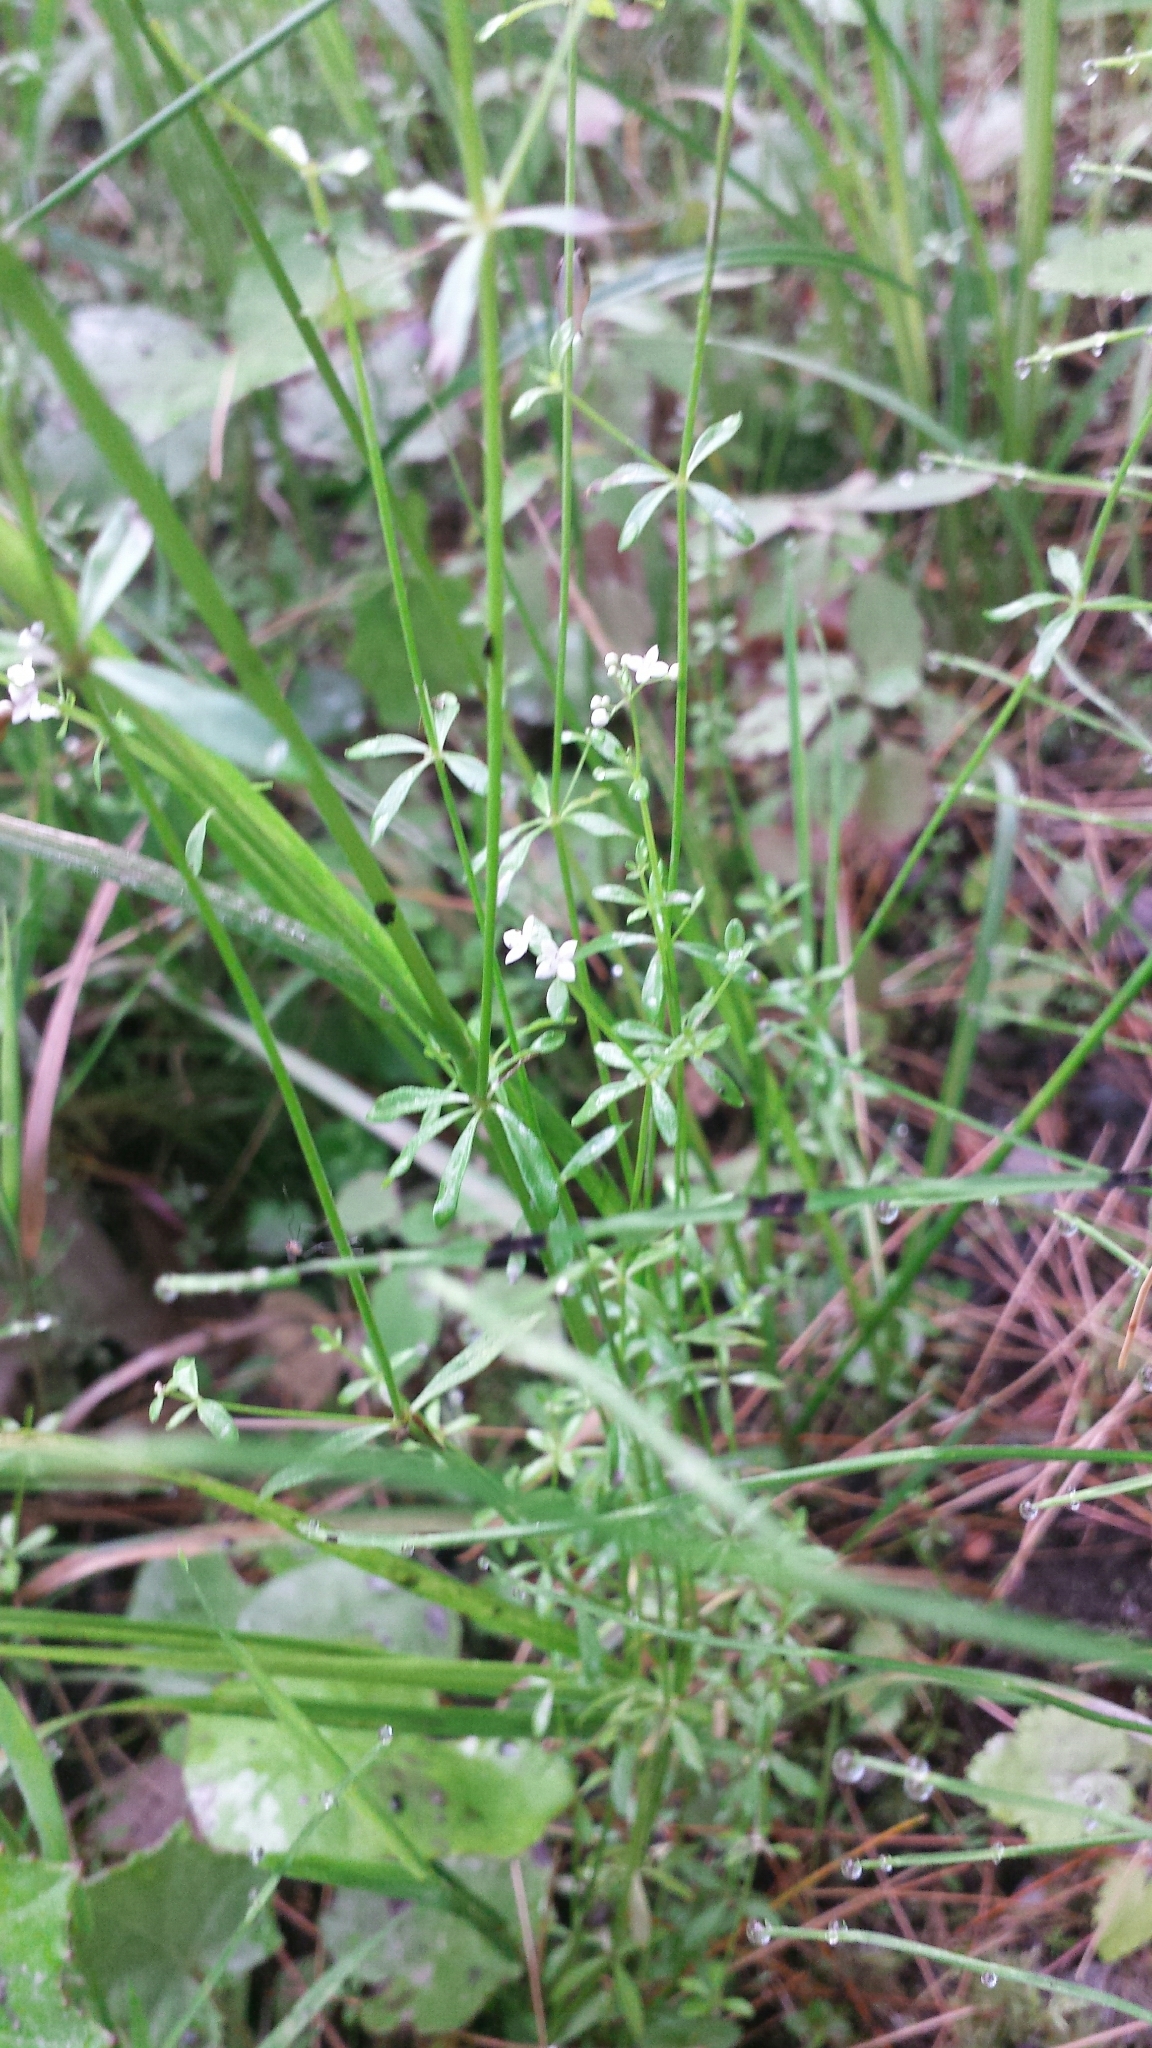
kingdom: Plantae
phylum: Tracheophyta
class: Magnoliopsida
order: Gentianales
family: Rubiaceae
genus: Galium
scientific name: Galium palustre
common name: Common marsh-bedstraw
